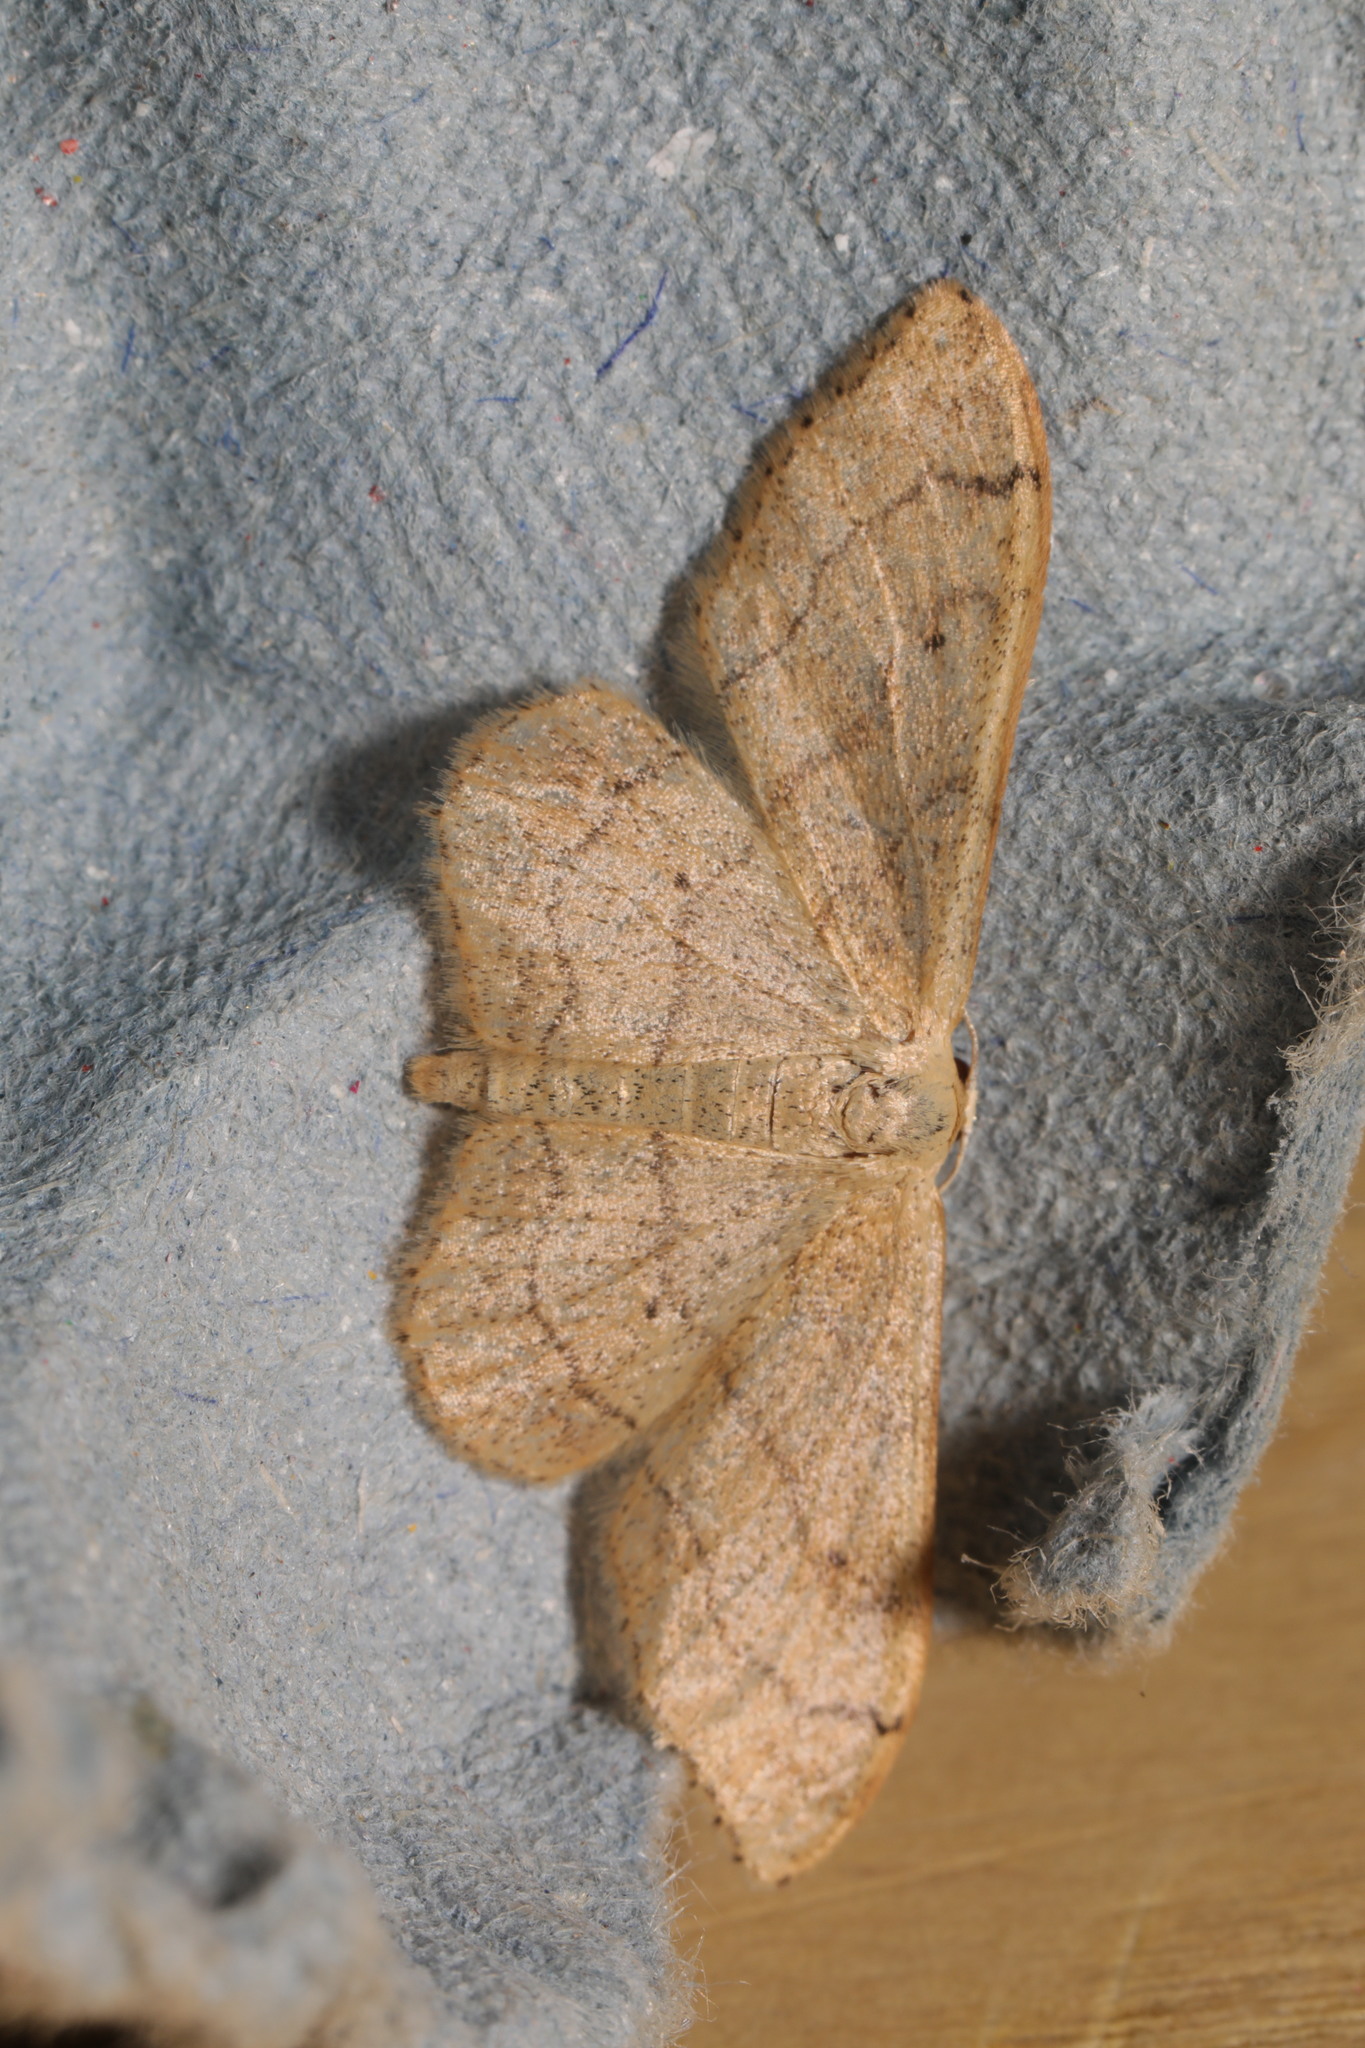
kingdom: Animalia
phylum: Arthropoda
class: Insecta
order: Lepidoptera
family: Geometridae
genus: Idaea
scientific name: Idaea aversata
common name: Riband wave
